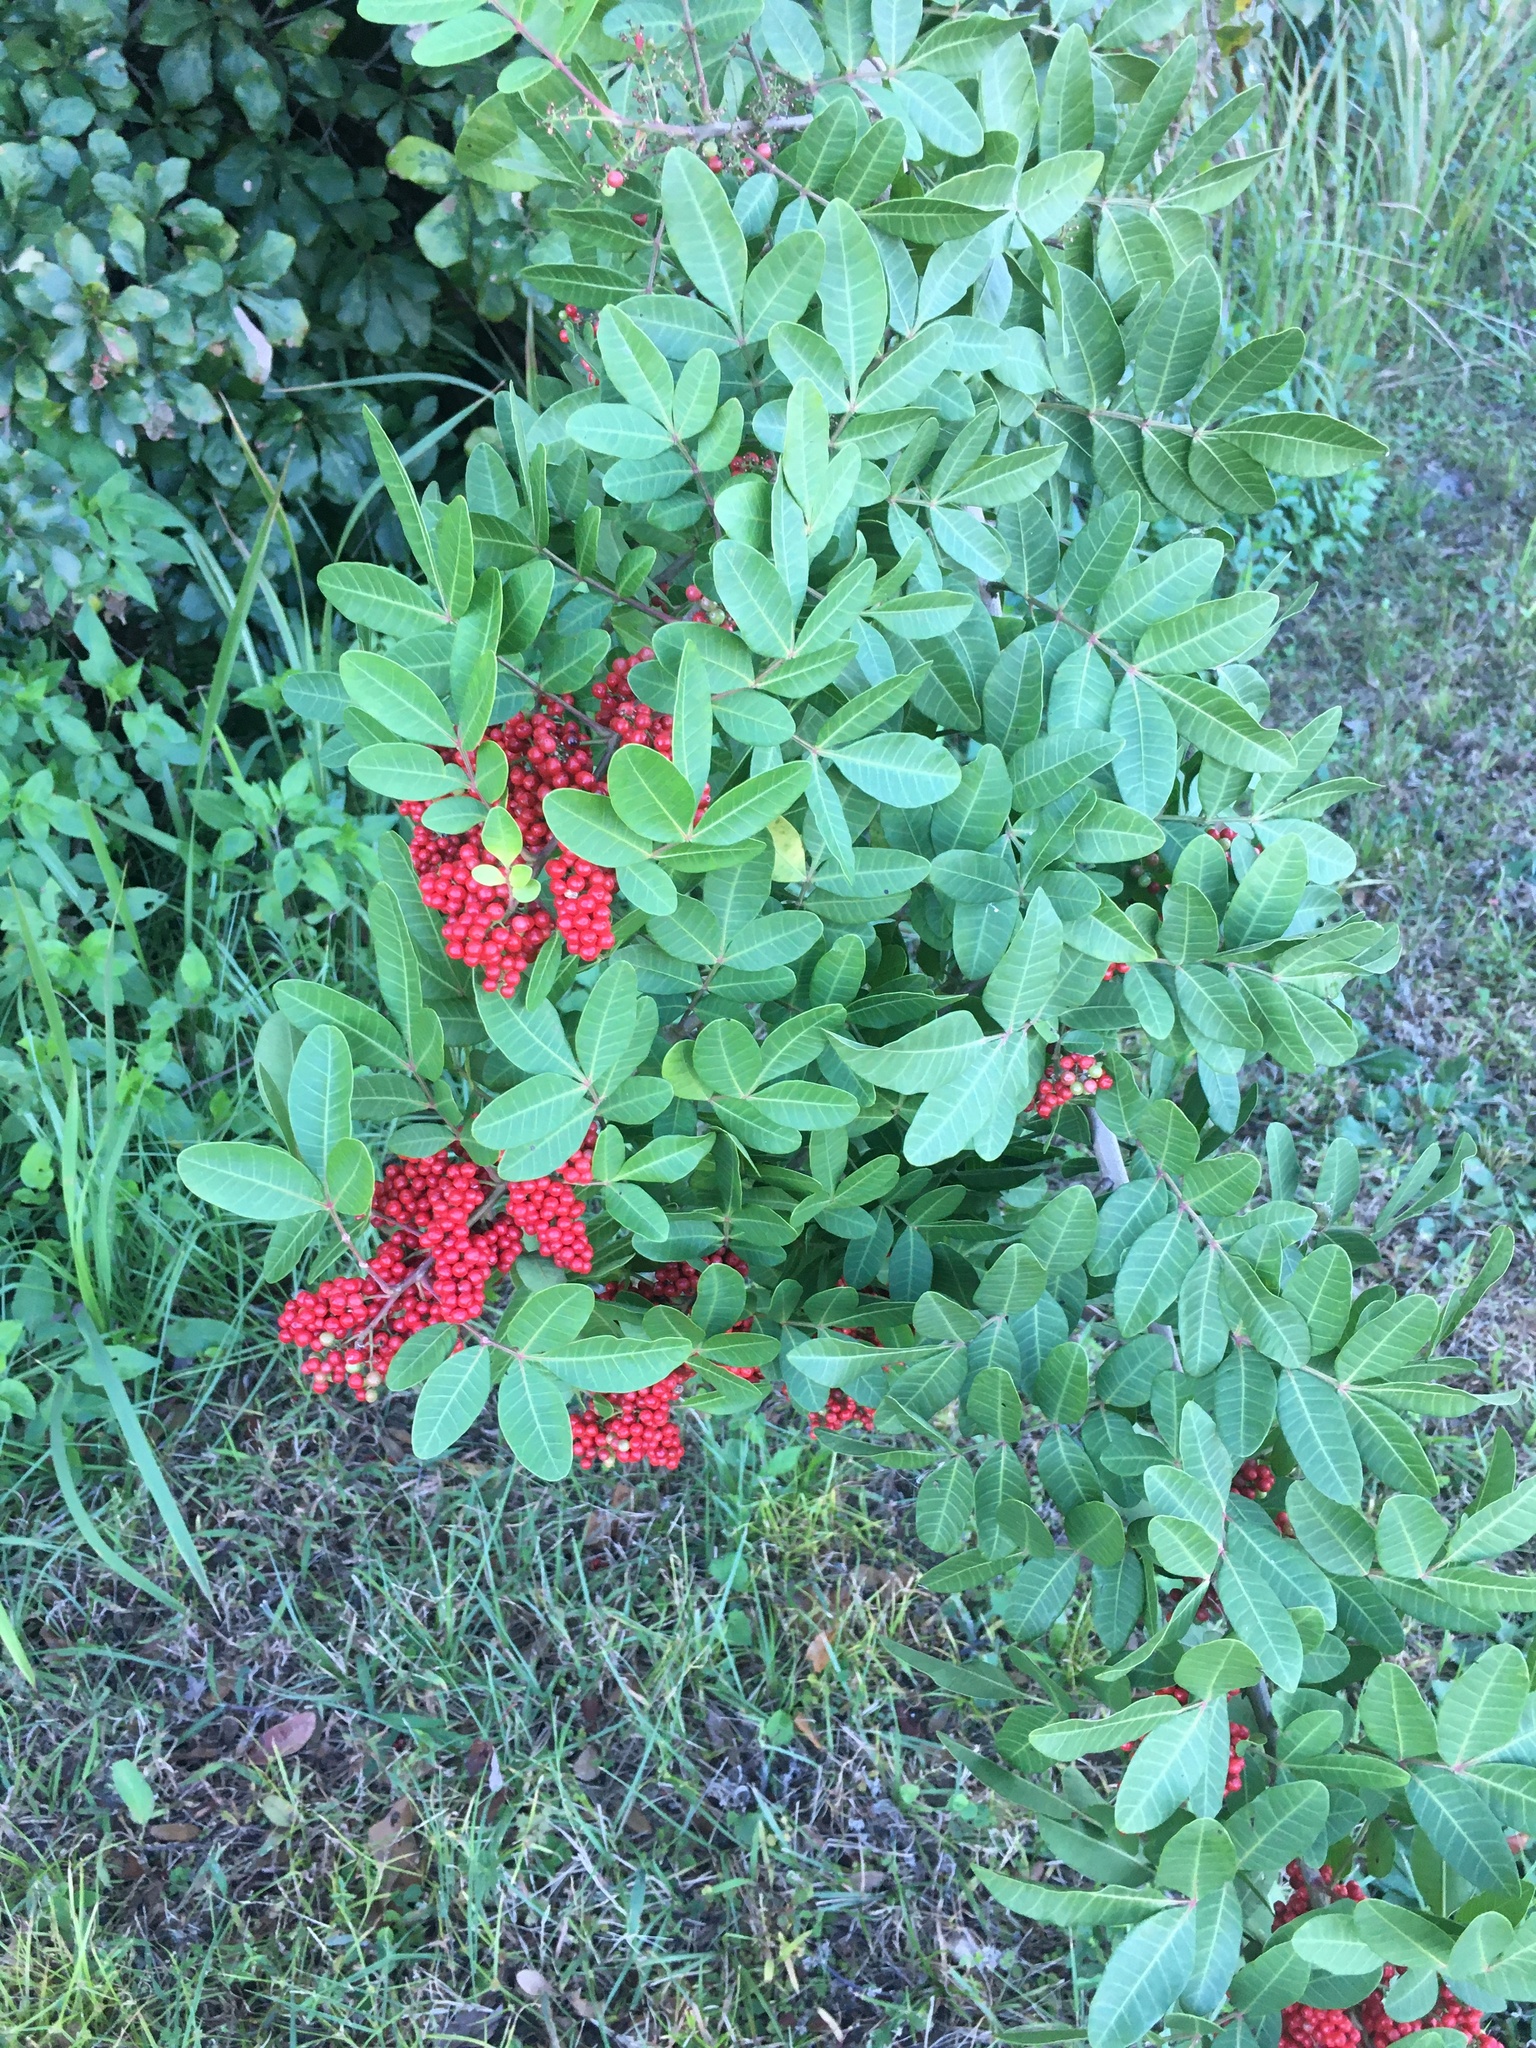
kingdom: Plantae
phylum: Tracheophyta
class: Magnoliopsida
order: Sapindales
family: Anacardiaceae
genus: Schinus
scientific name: Schinus terebinthifolia
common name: Brazilian peppertree
